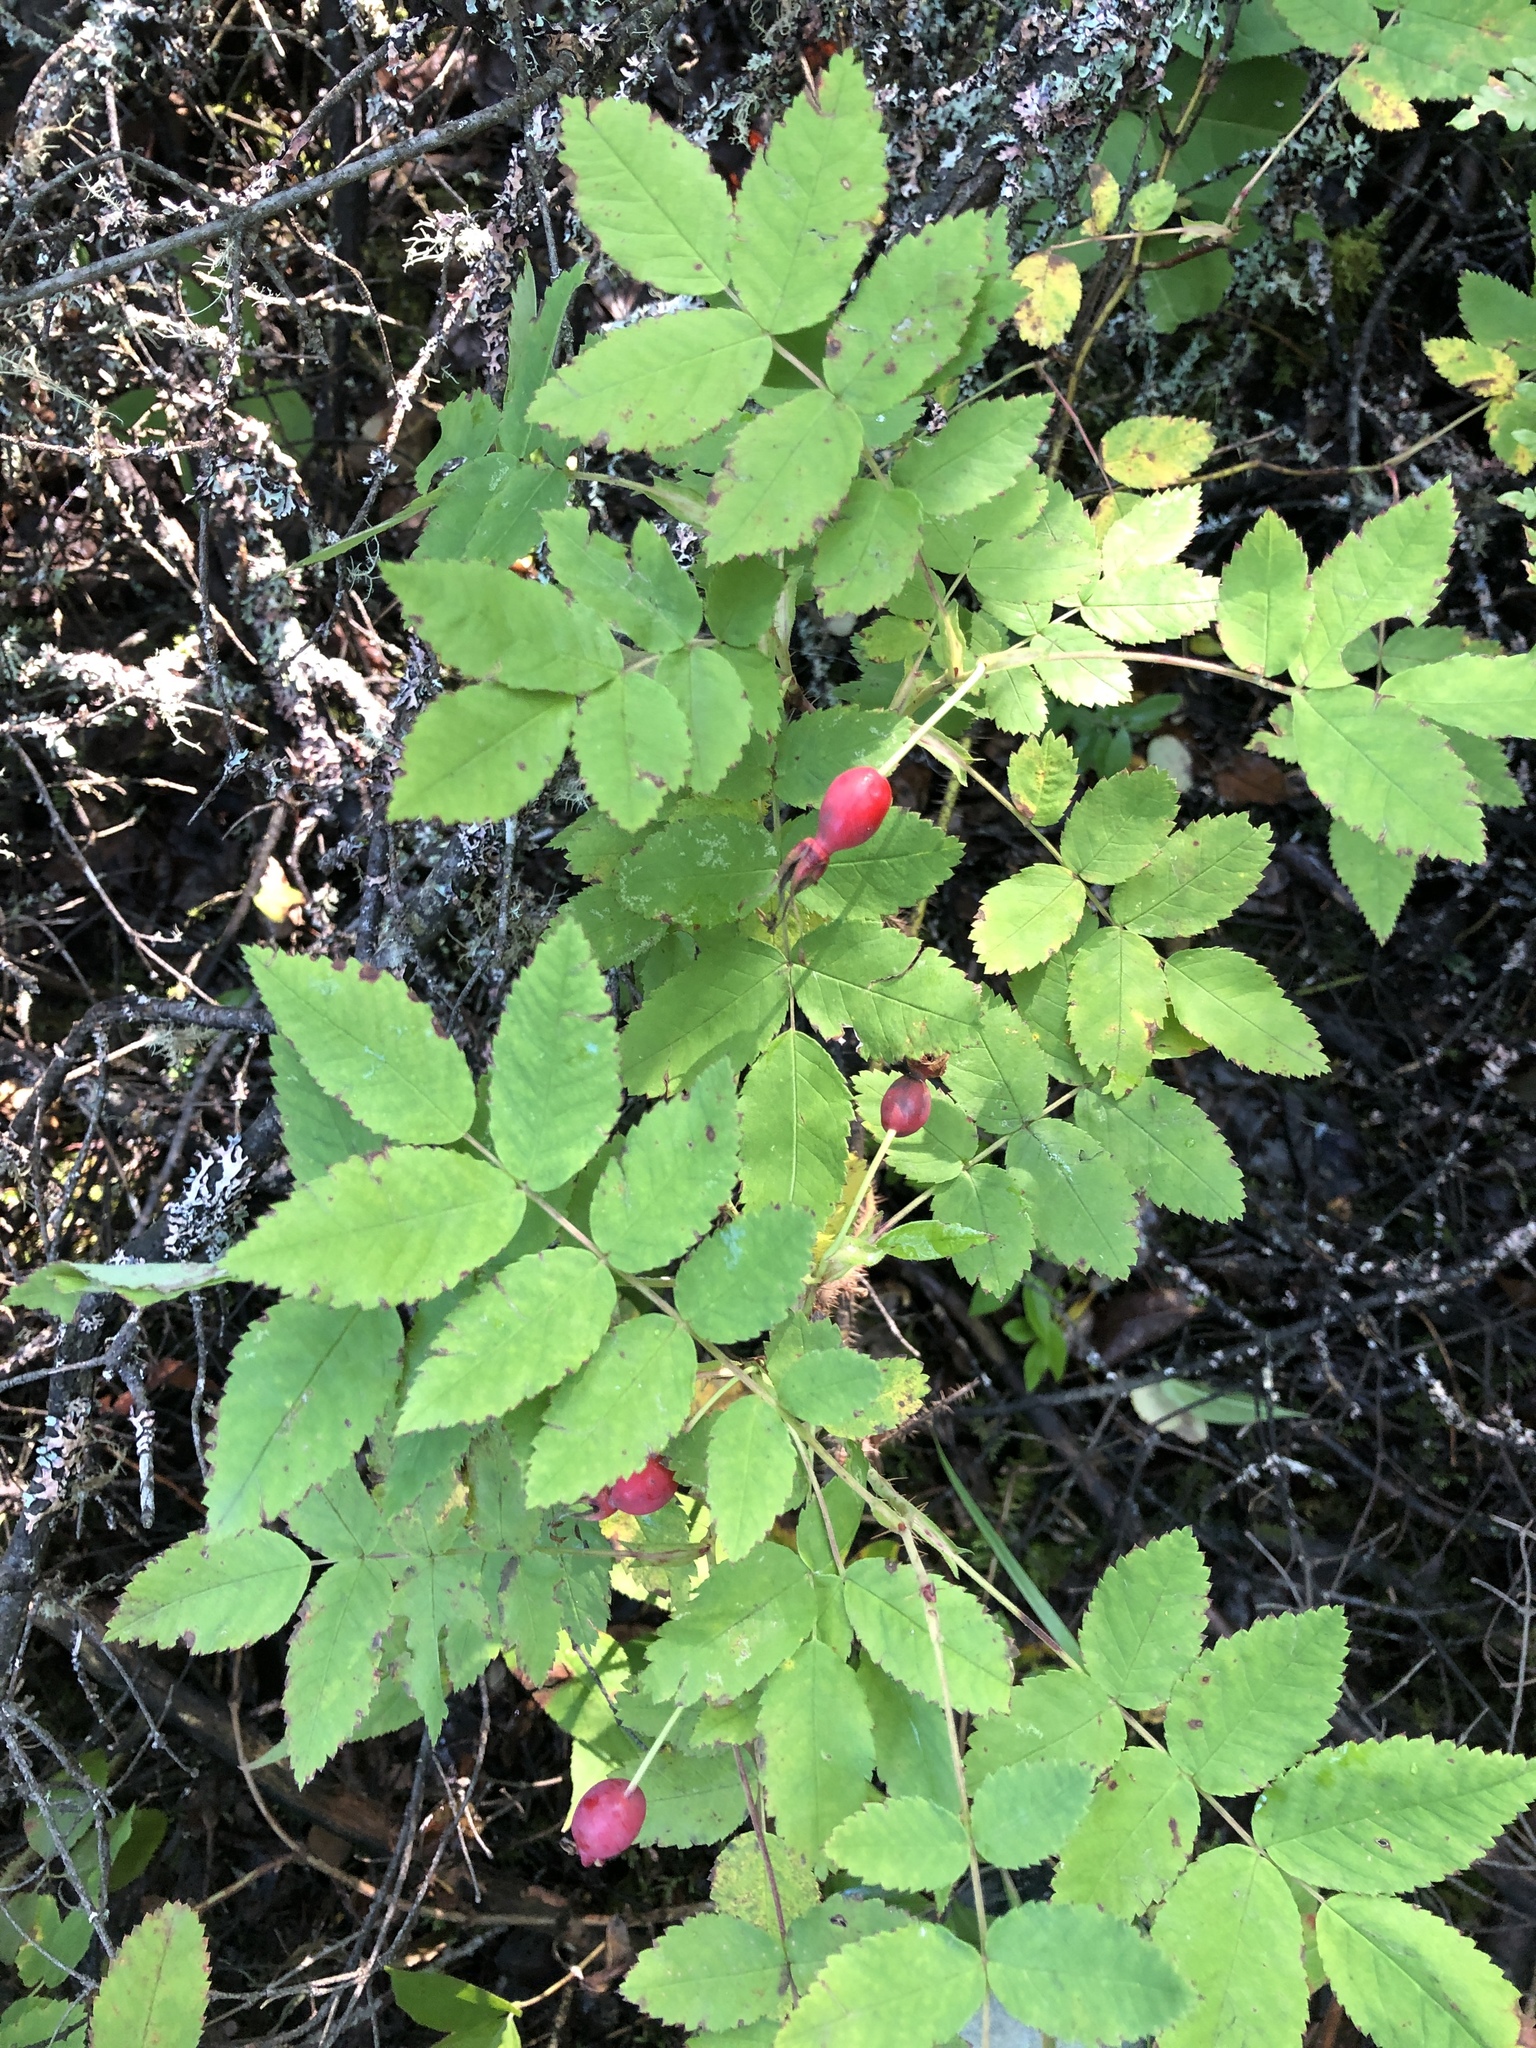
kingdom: Plantae
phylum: Tracheophyta
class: Magnoliopsida
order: Rosales
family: Rosaceae
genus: Rosa
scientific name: Rosa acicularis
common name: Prickly rose
